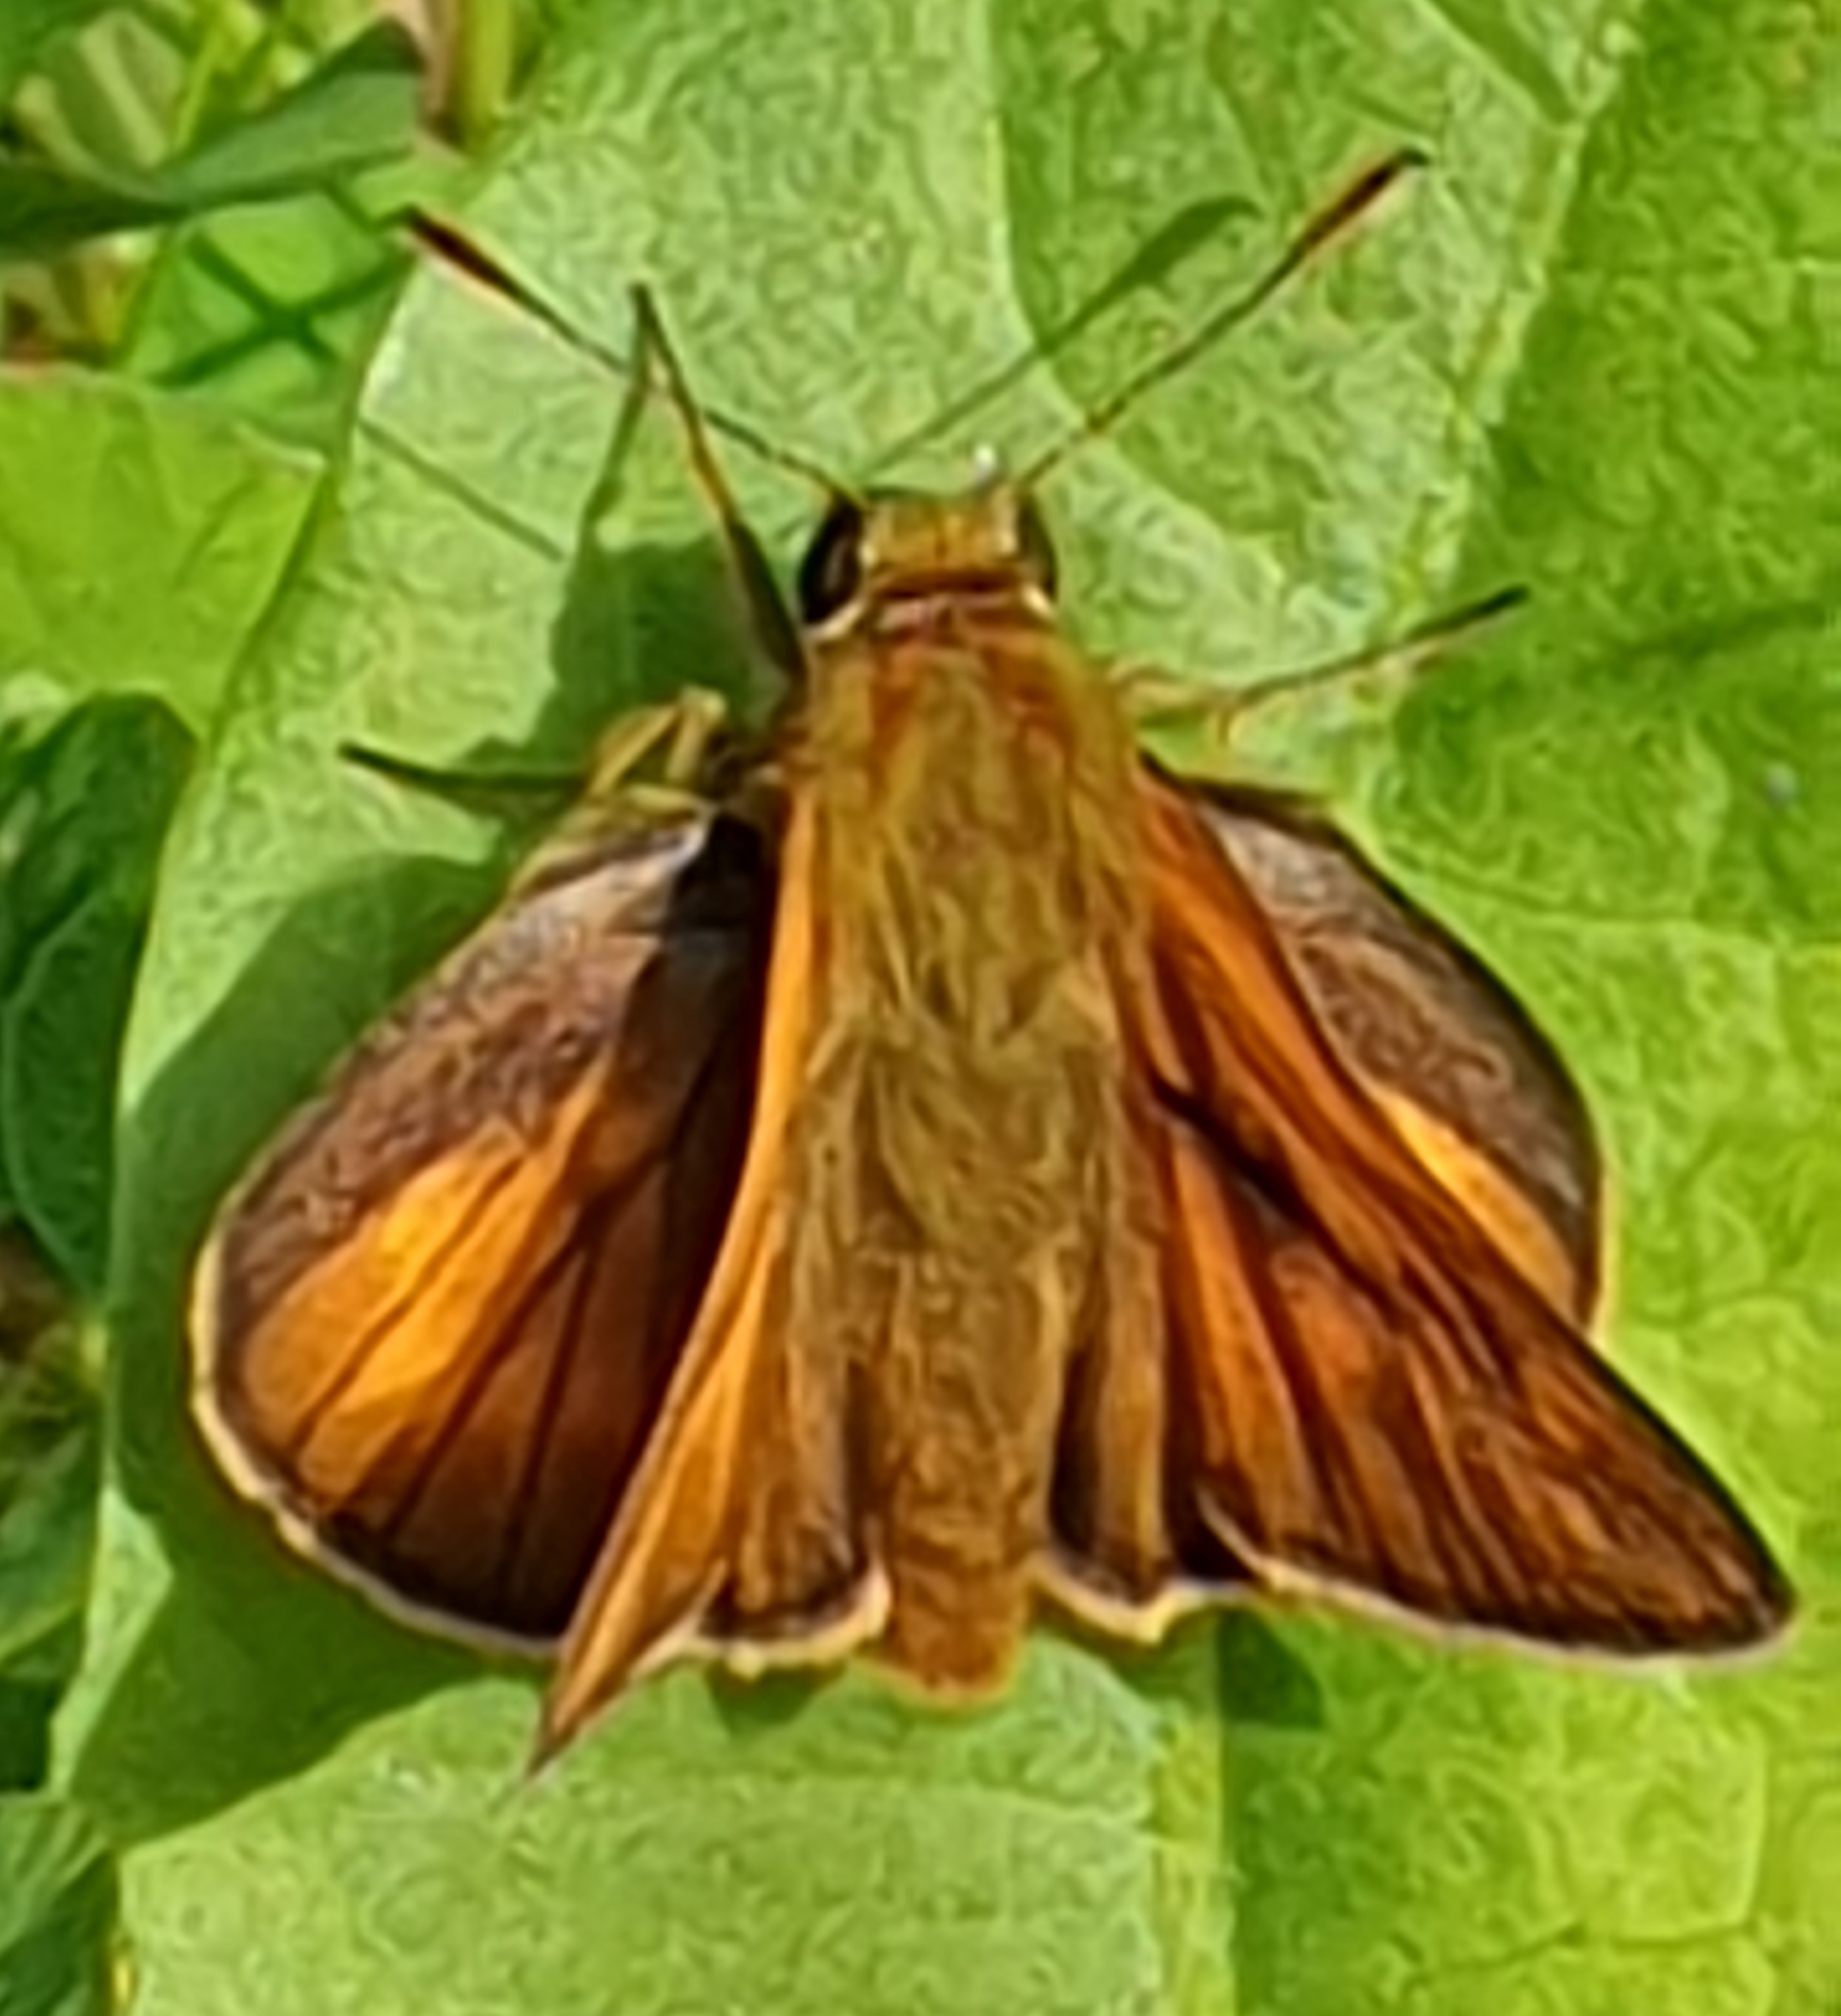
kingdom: Animalia
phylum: Arthropoda
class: Insecta
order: Lepidoptera
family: Hesperiidae
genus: Ochlodes
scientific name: Ochlodes venata
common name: Large skipper
